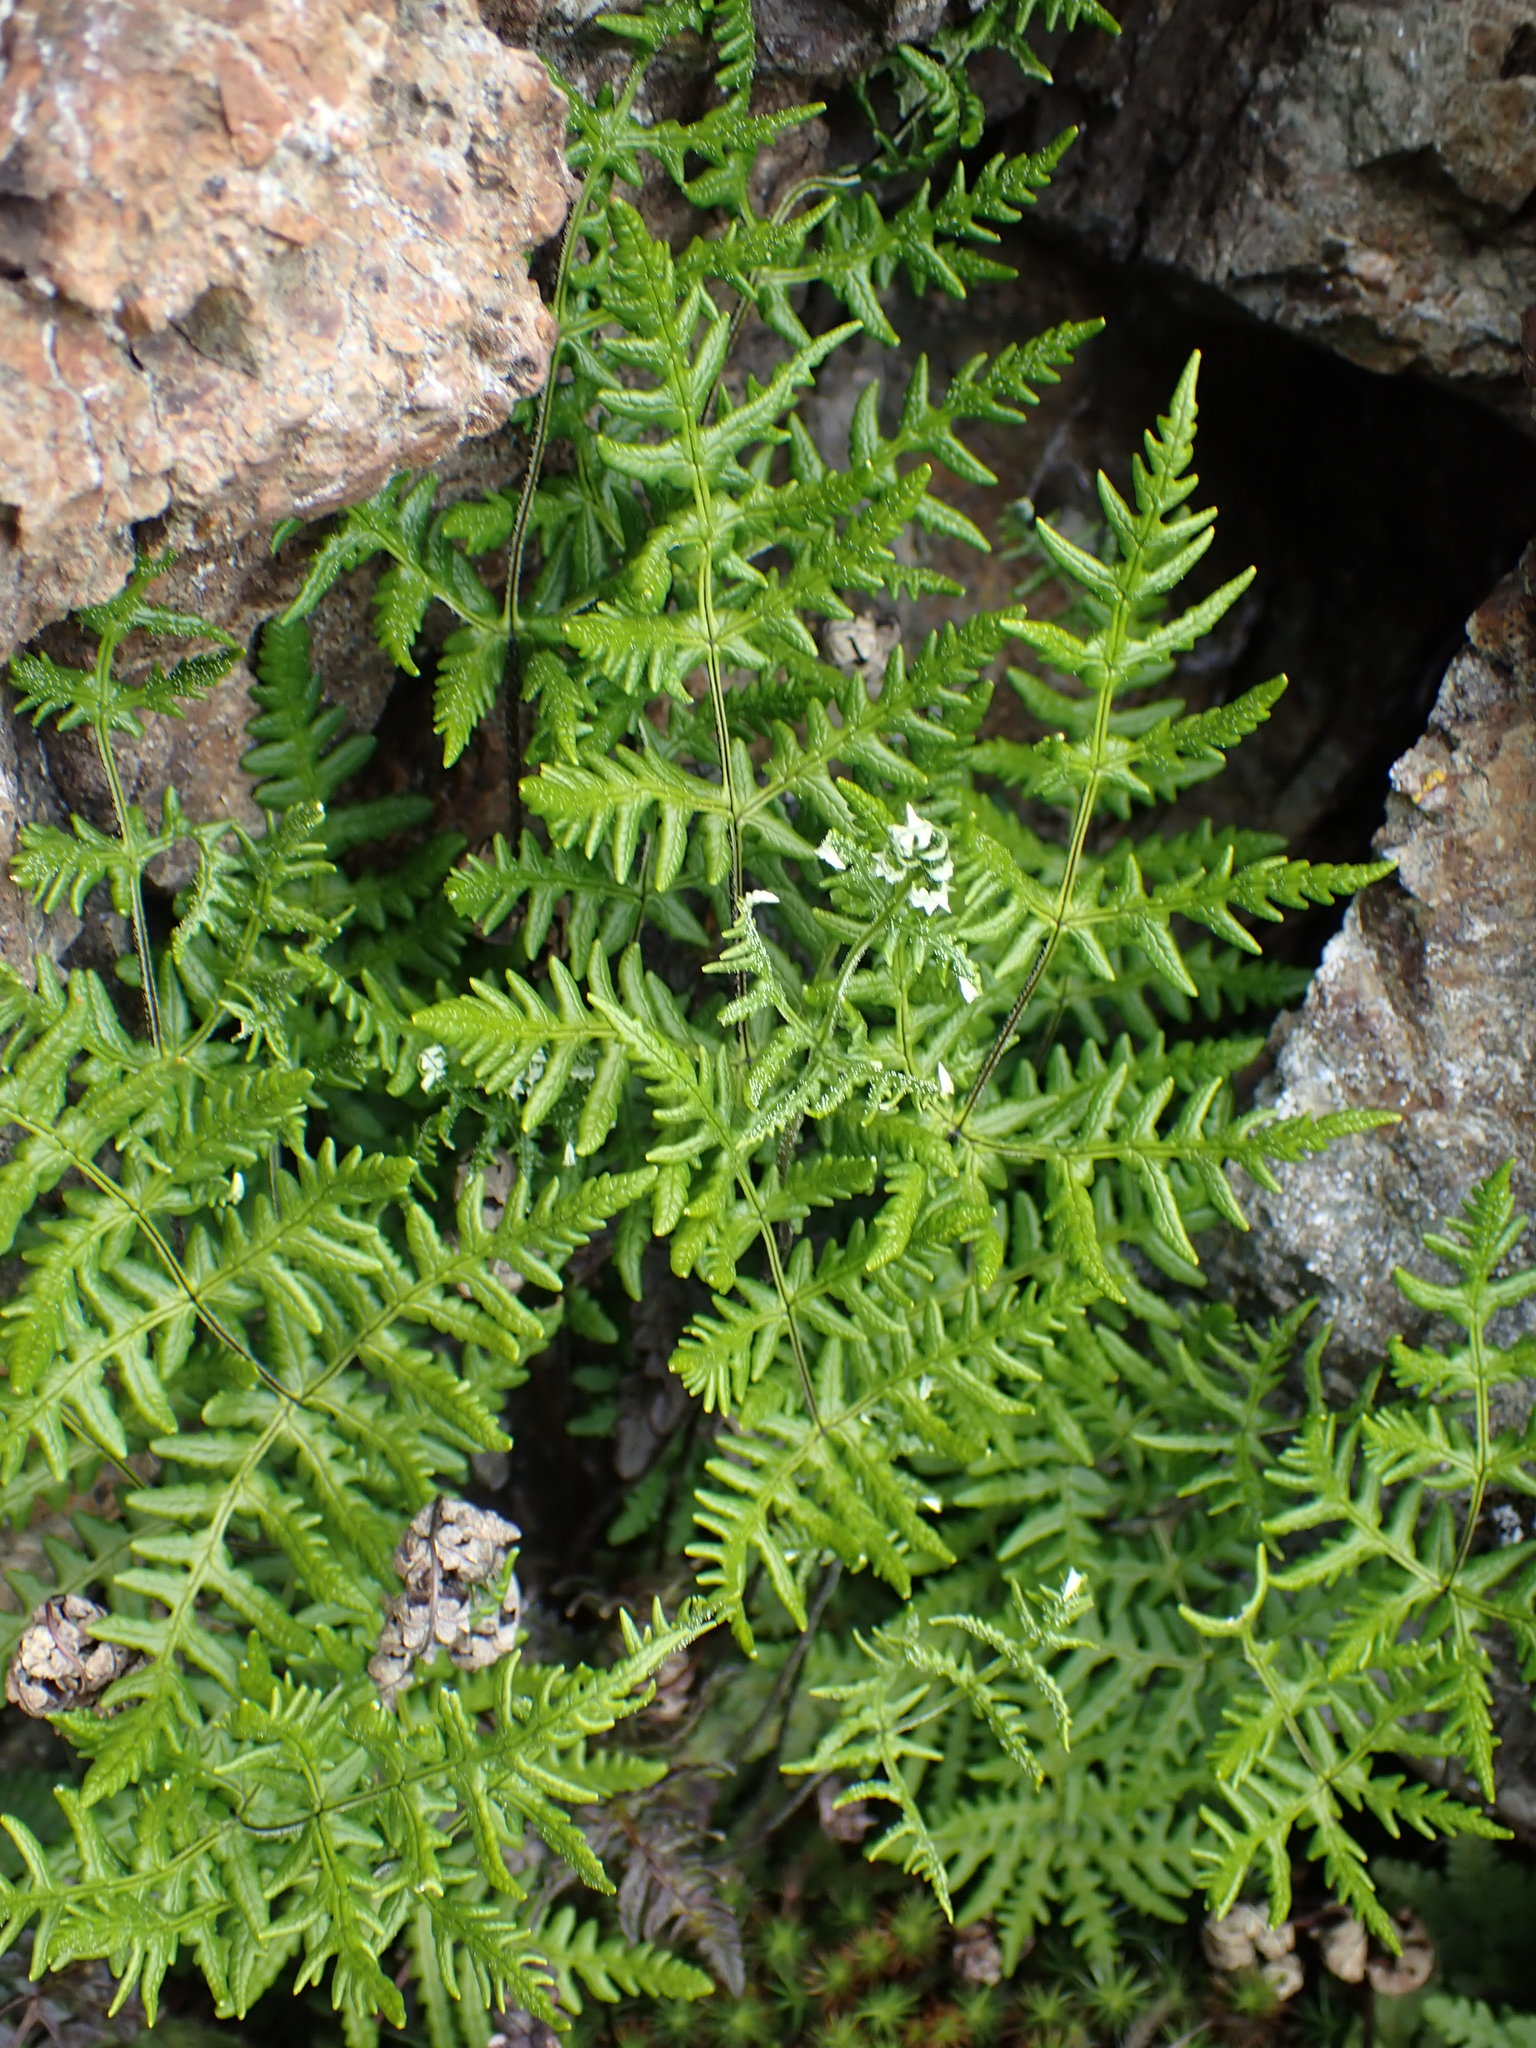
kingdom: Plantae
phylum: Tracheophyta
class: Polypodiopsida
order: Polypodiales
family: Pteridaceae
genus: Pentagramma
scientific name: Pentagramma triangularis
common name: Gold fern
